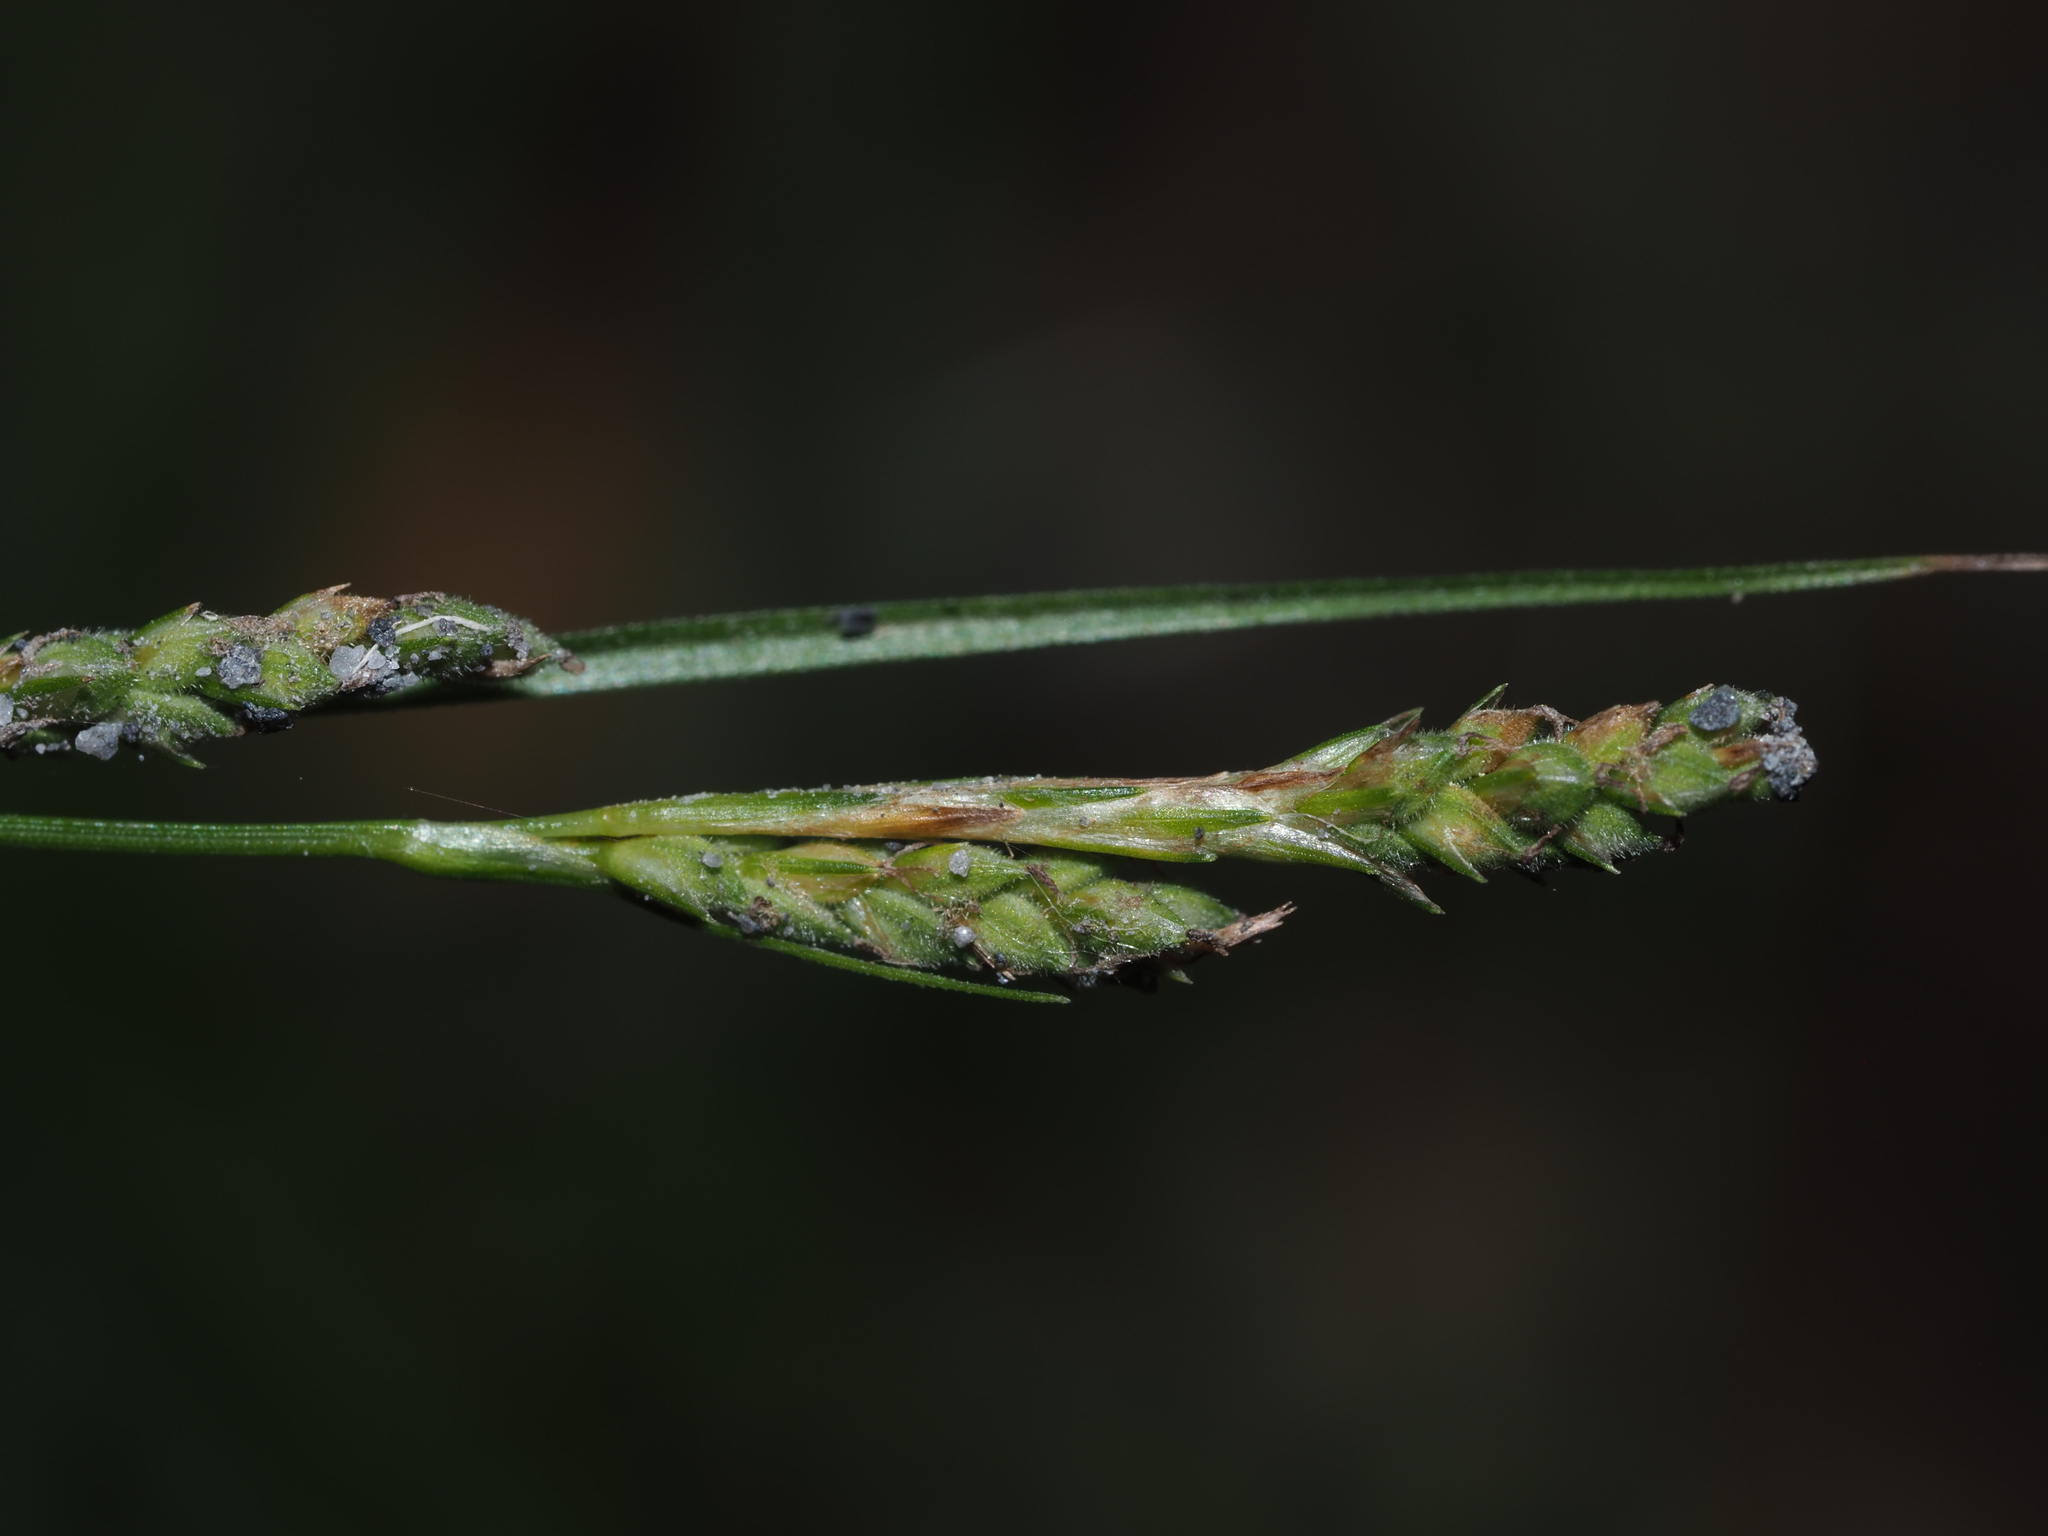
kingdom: Plantae
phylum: Tracheophyta
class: Liliopsida
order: Poales
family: Cyperaceae
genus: Carex
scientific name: Carex swanii
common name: Downy green sedge
